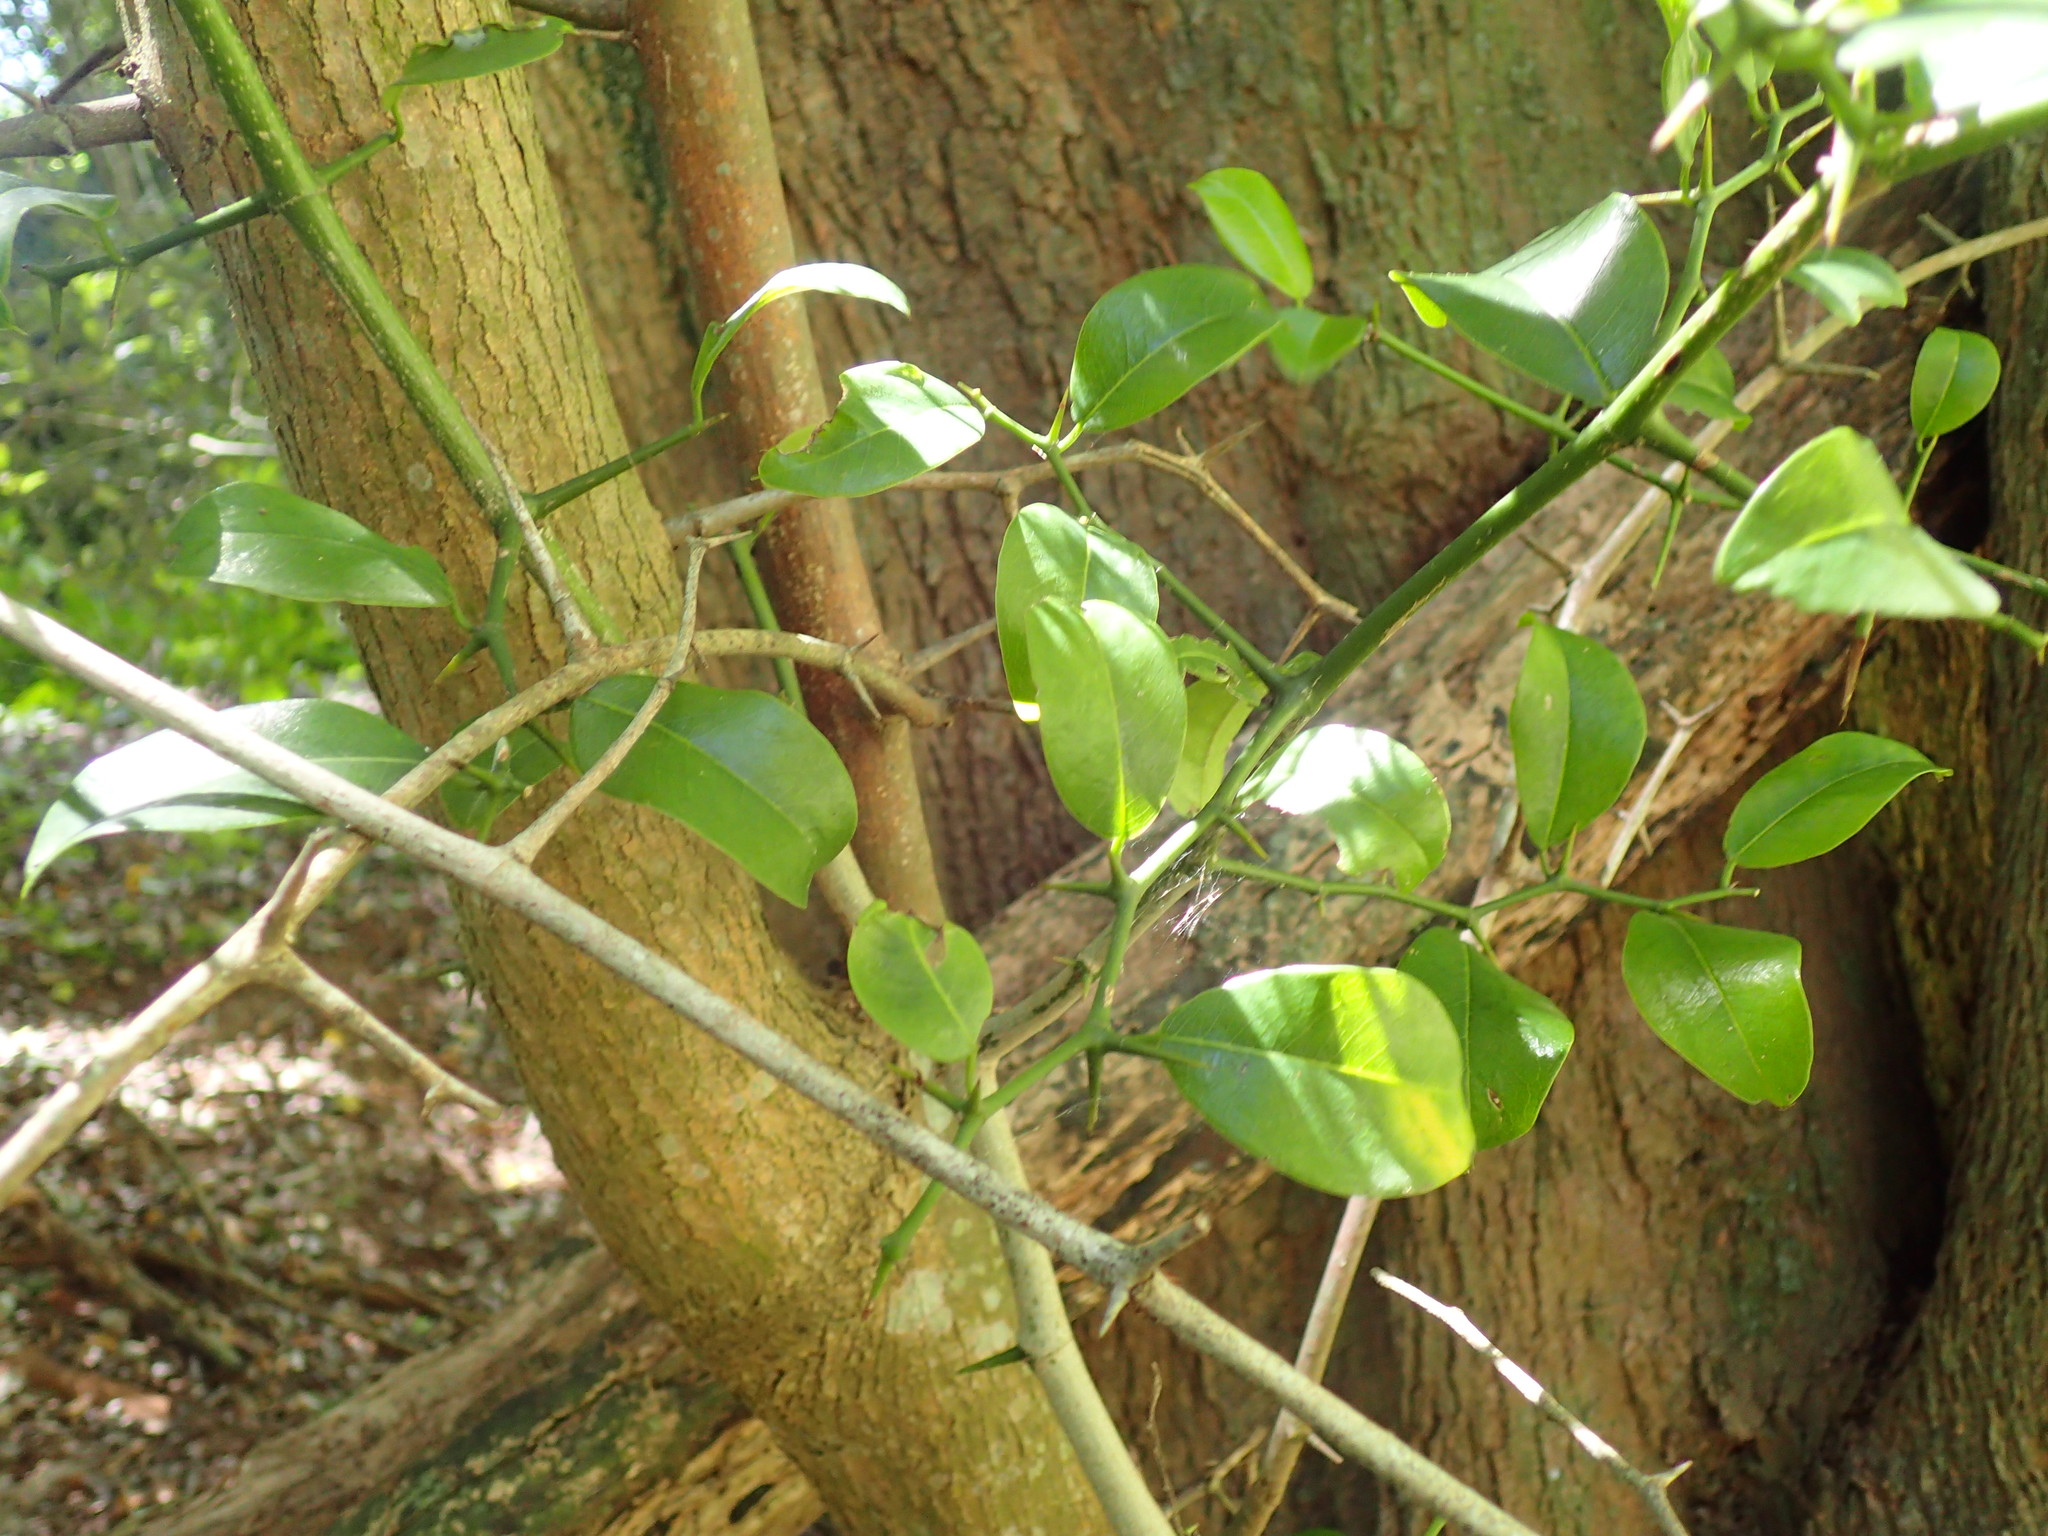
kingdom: Plantae
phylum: Tracheophyta
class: Magnoliopsida
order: Rosales
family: Cannabaceae
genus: Chaetachme
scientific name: Chaetachme aristata
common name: Thorny elm
